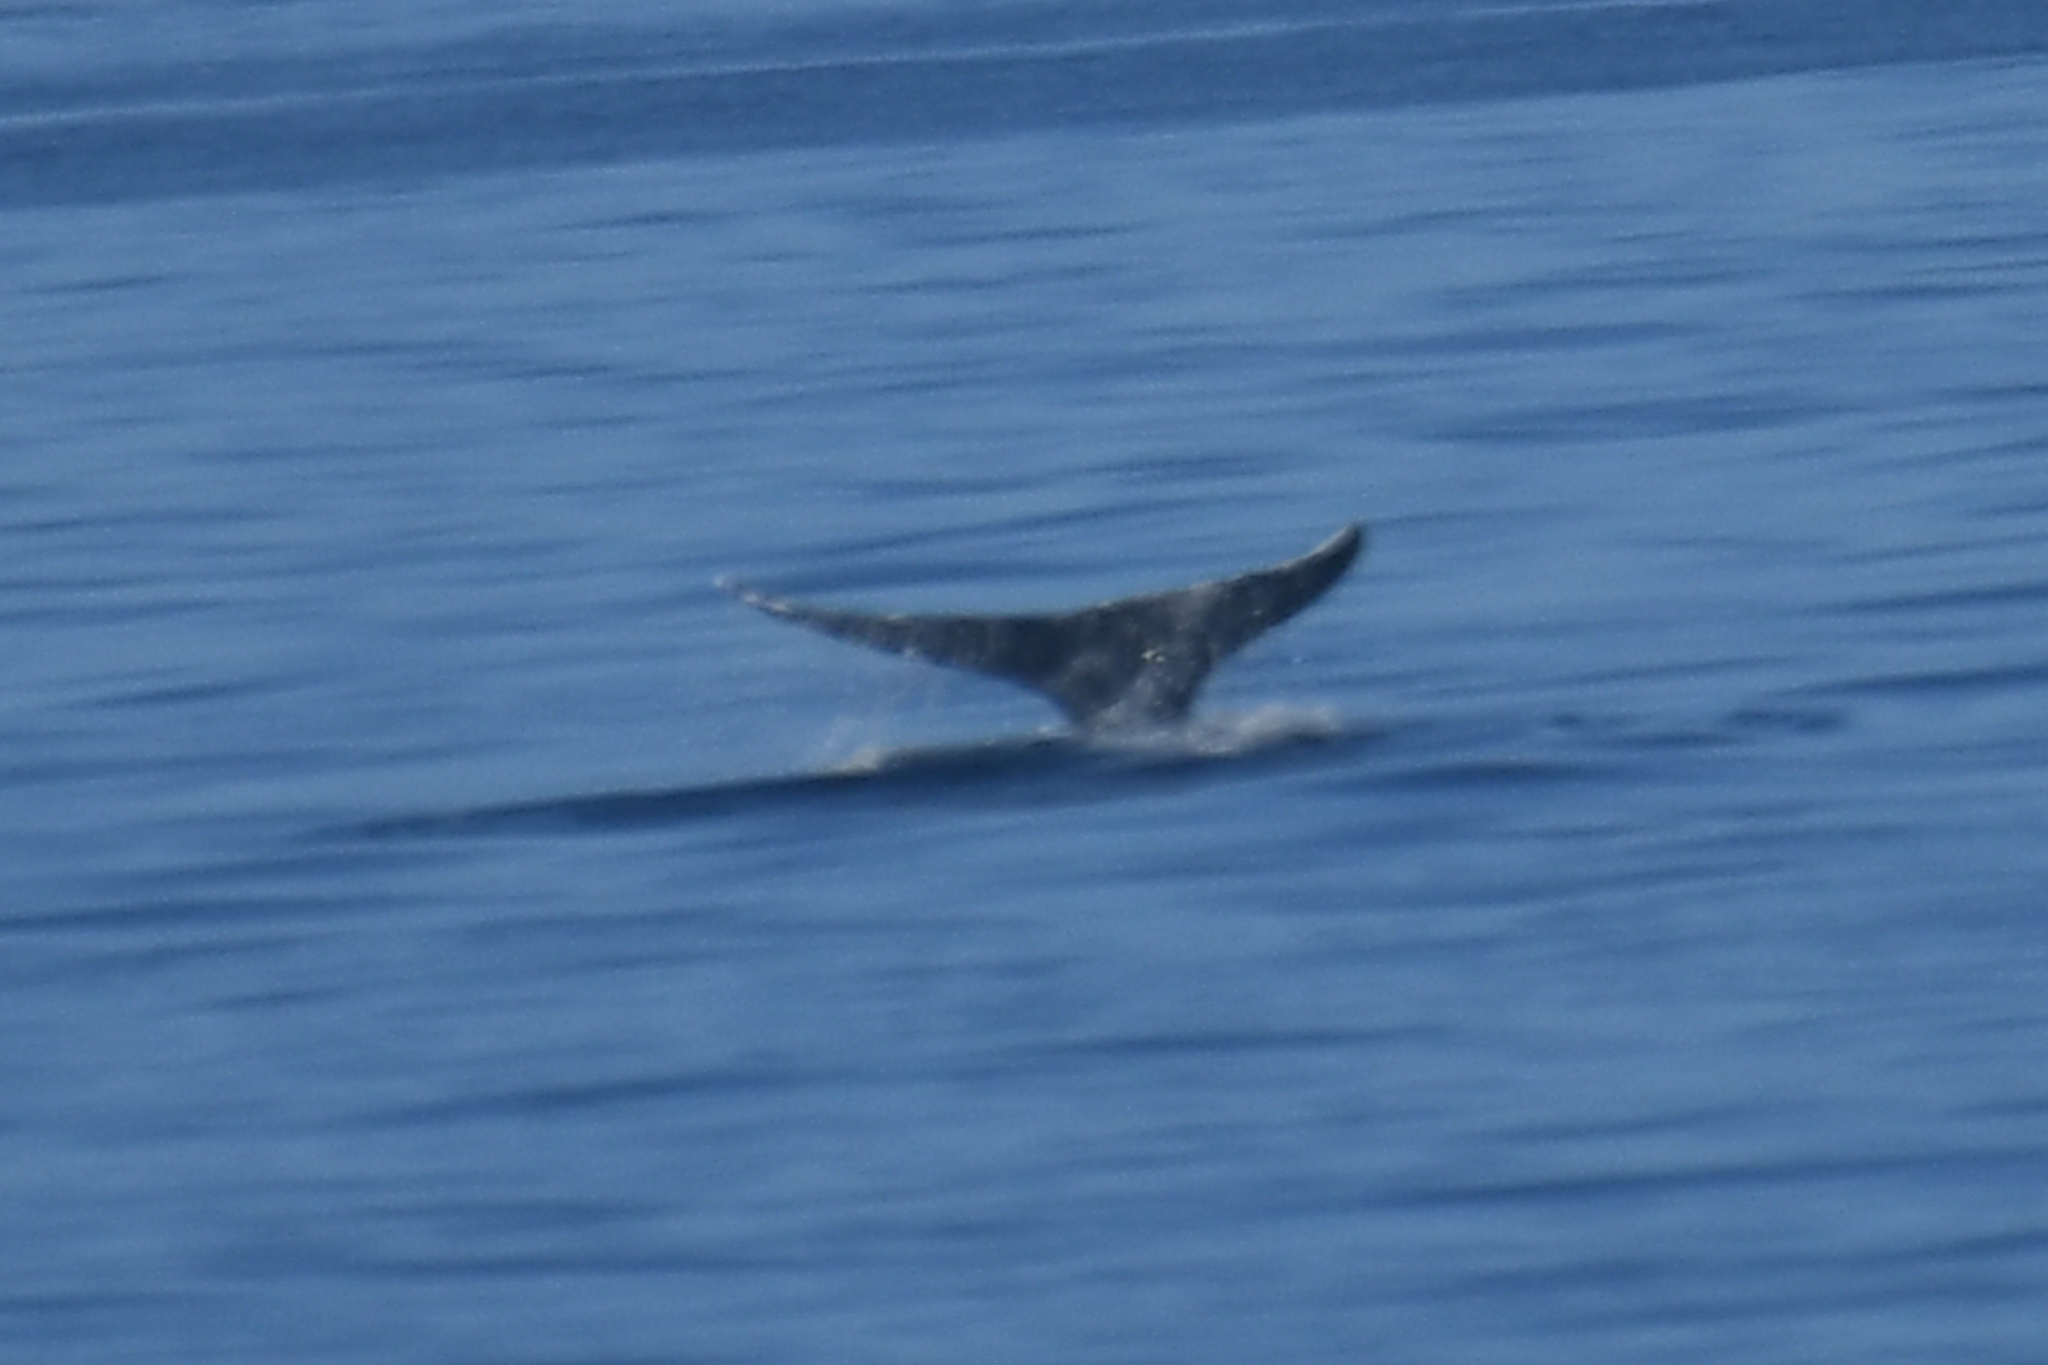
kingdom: Animalia
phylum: Chordata
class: Mammalia
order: Cetacea
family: Eschrichtiidae
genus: Eschrichtius
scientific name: Eschrichtius robustus
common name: Gray whale
